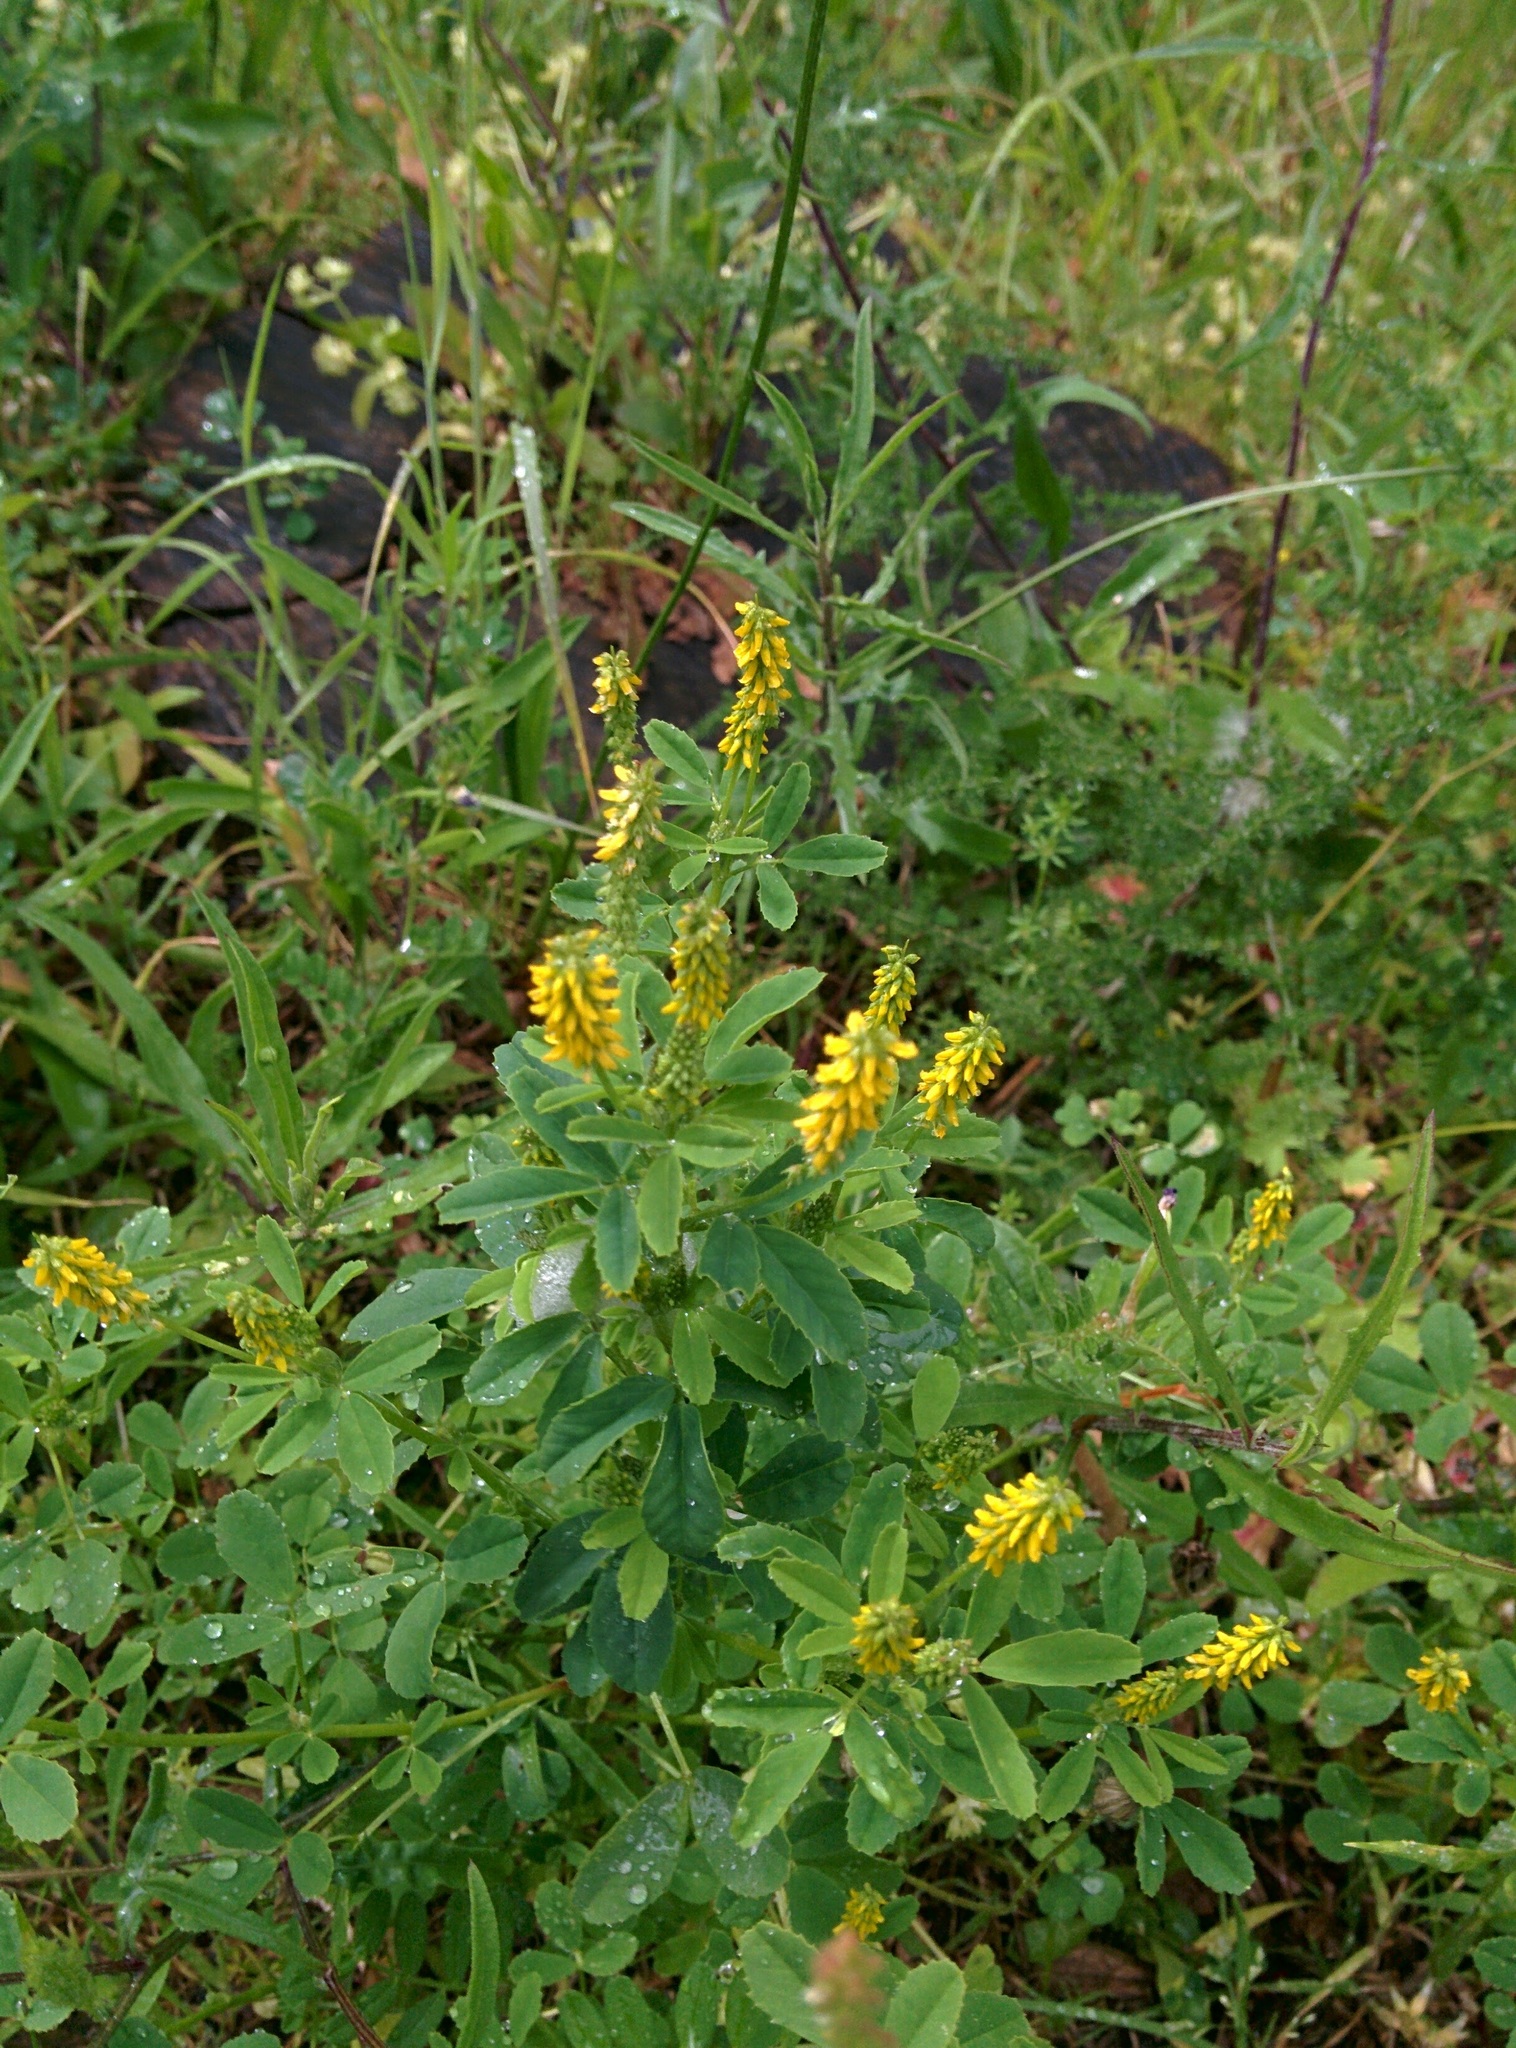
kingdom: Plantae
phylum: Tracheophyta
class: Magnoliopsida
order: Fabales
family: Fabaceae
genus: Melilotus
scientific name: Melilotus indicus
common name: Small melilot
